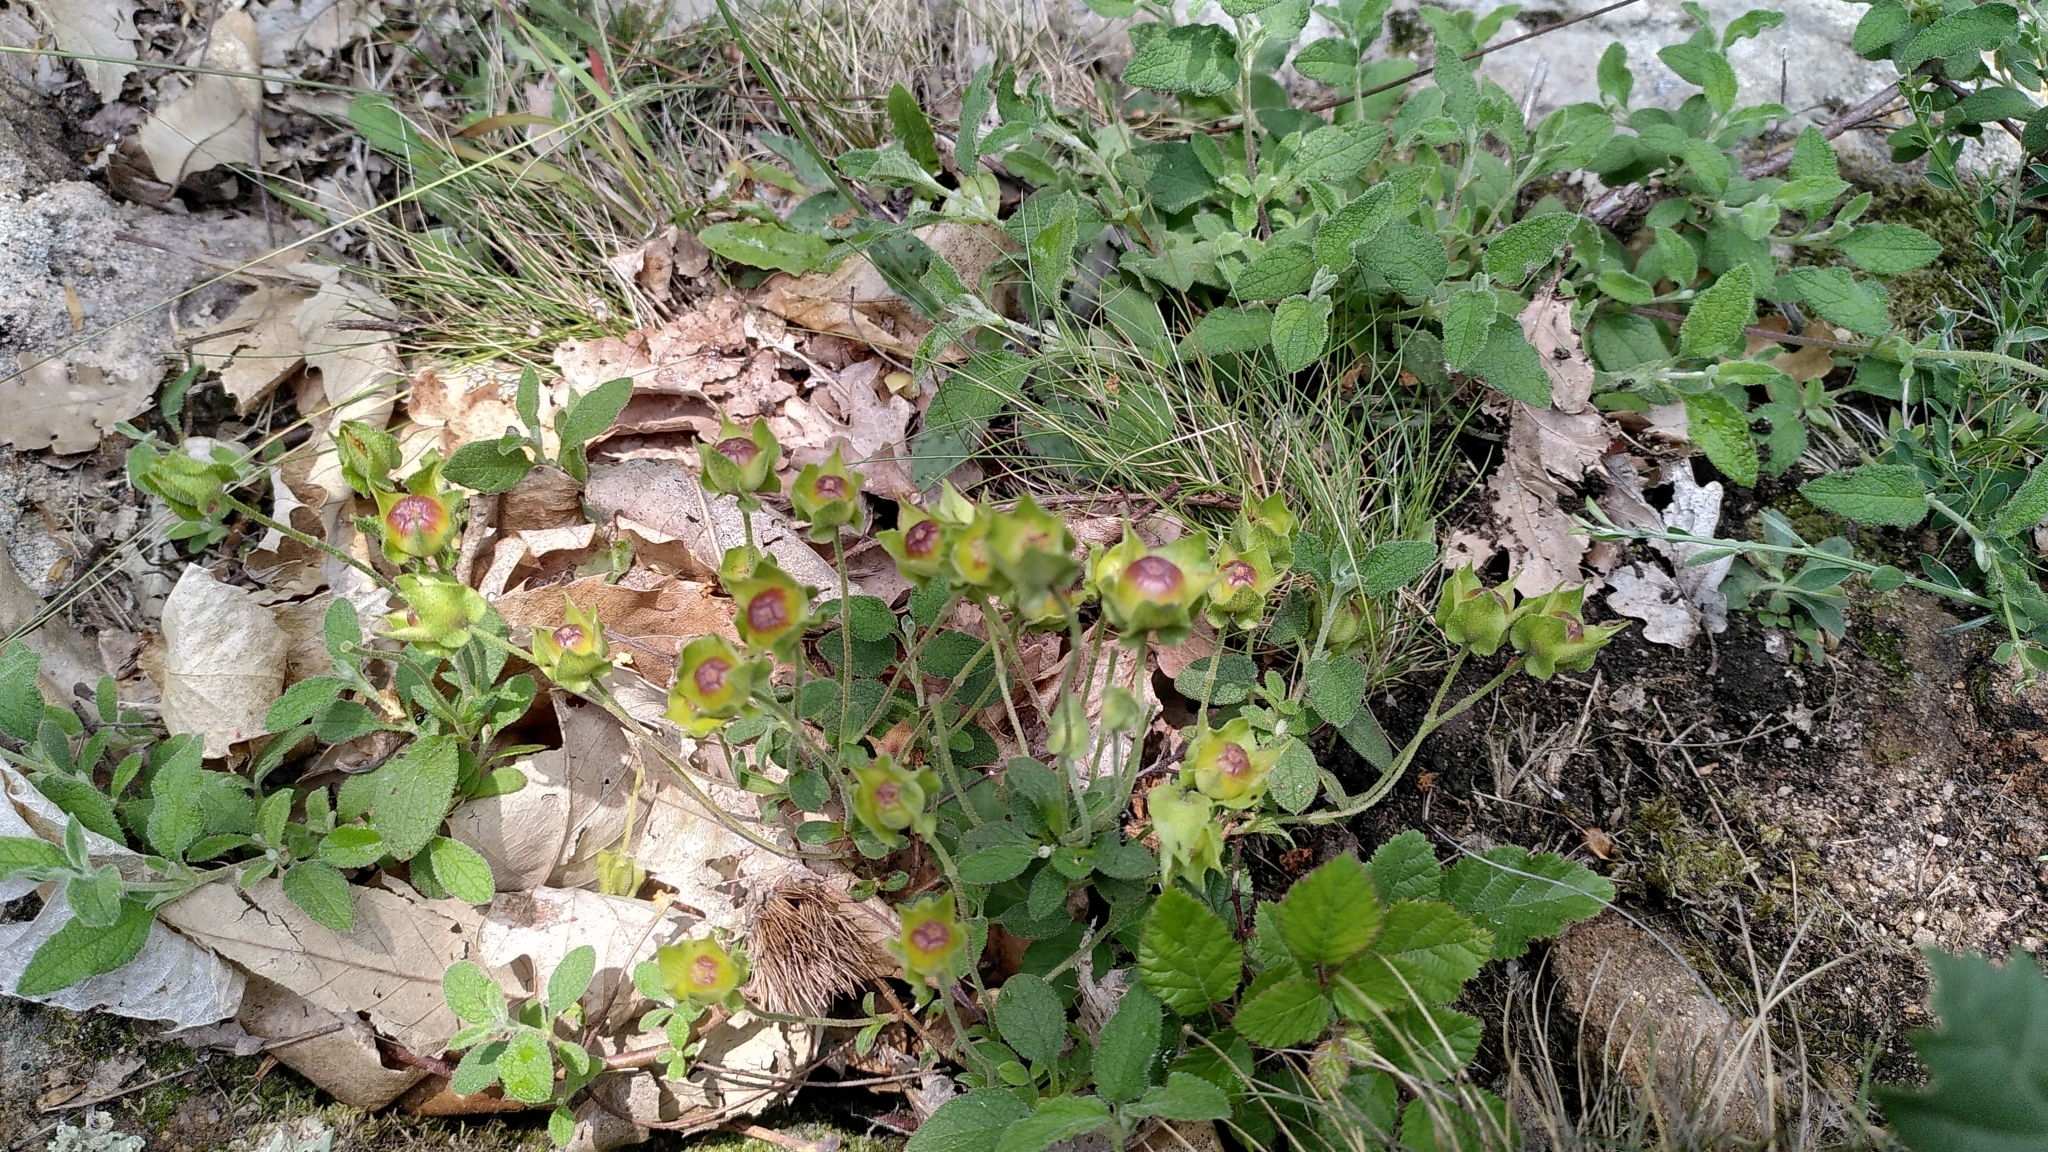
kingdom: Plantae
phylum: Tracheophyta
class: Magnoliopsida
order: Malvales
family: Cistaceae
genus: Cistus
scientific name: Cistus salviifolius
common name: Salvia cistus
